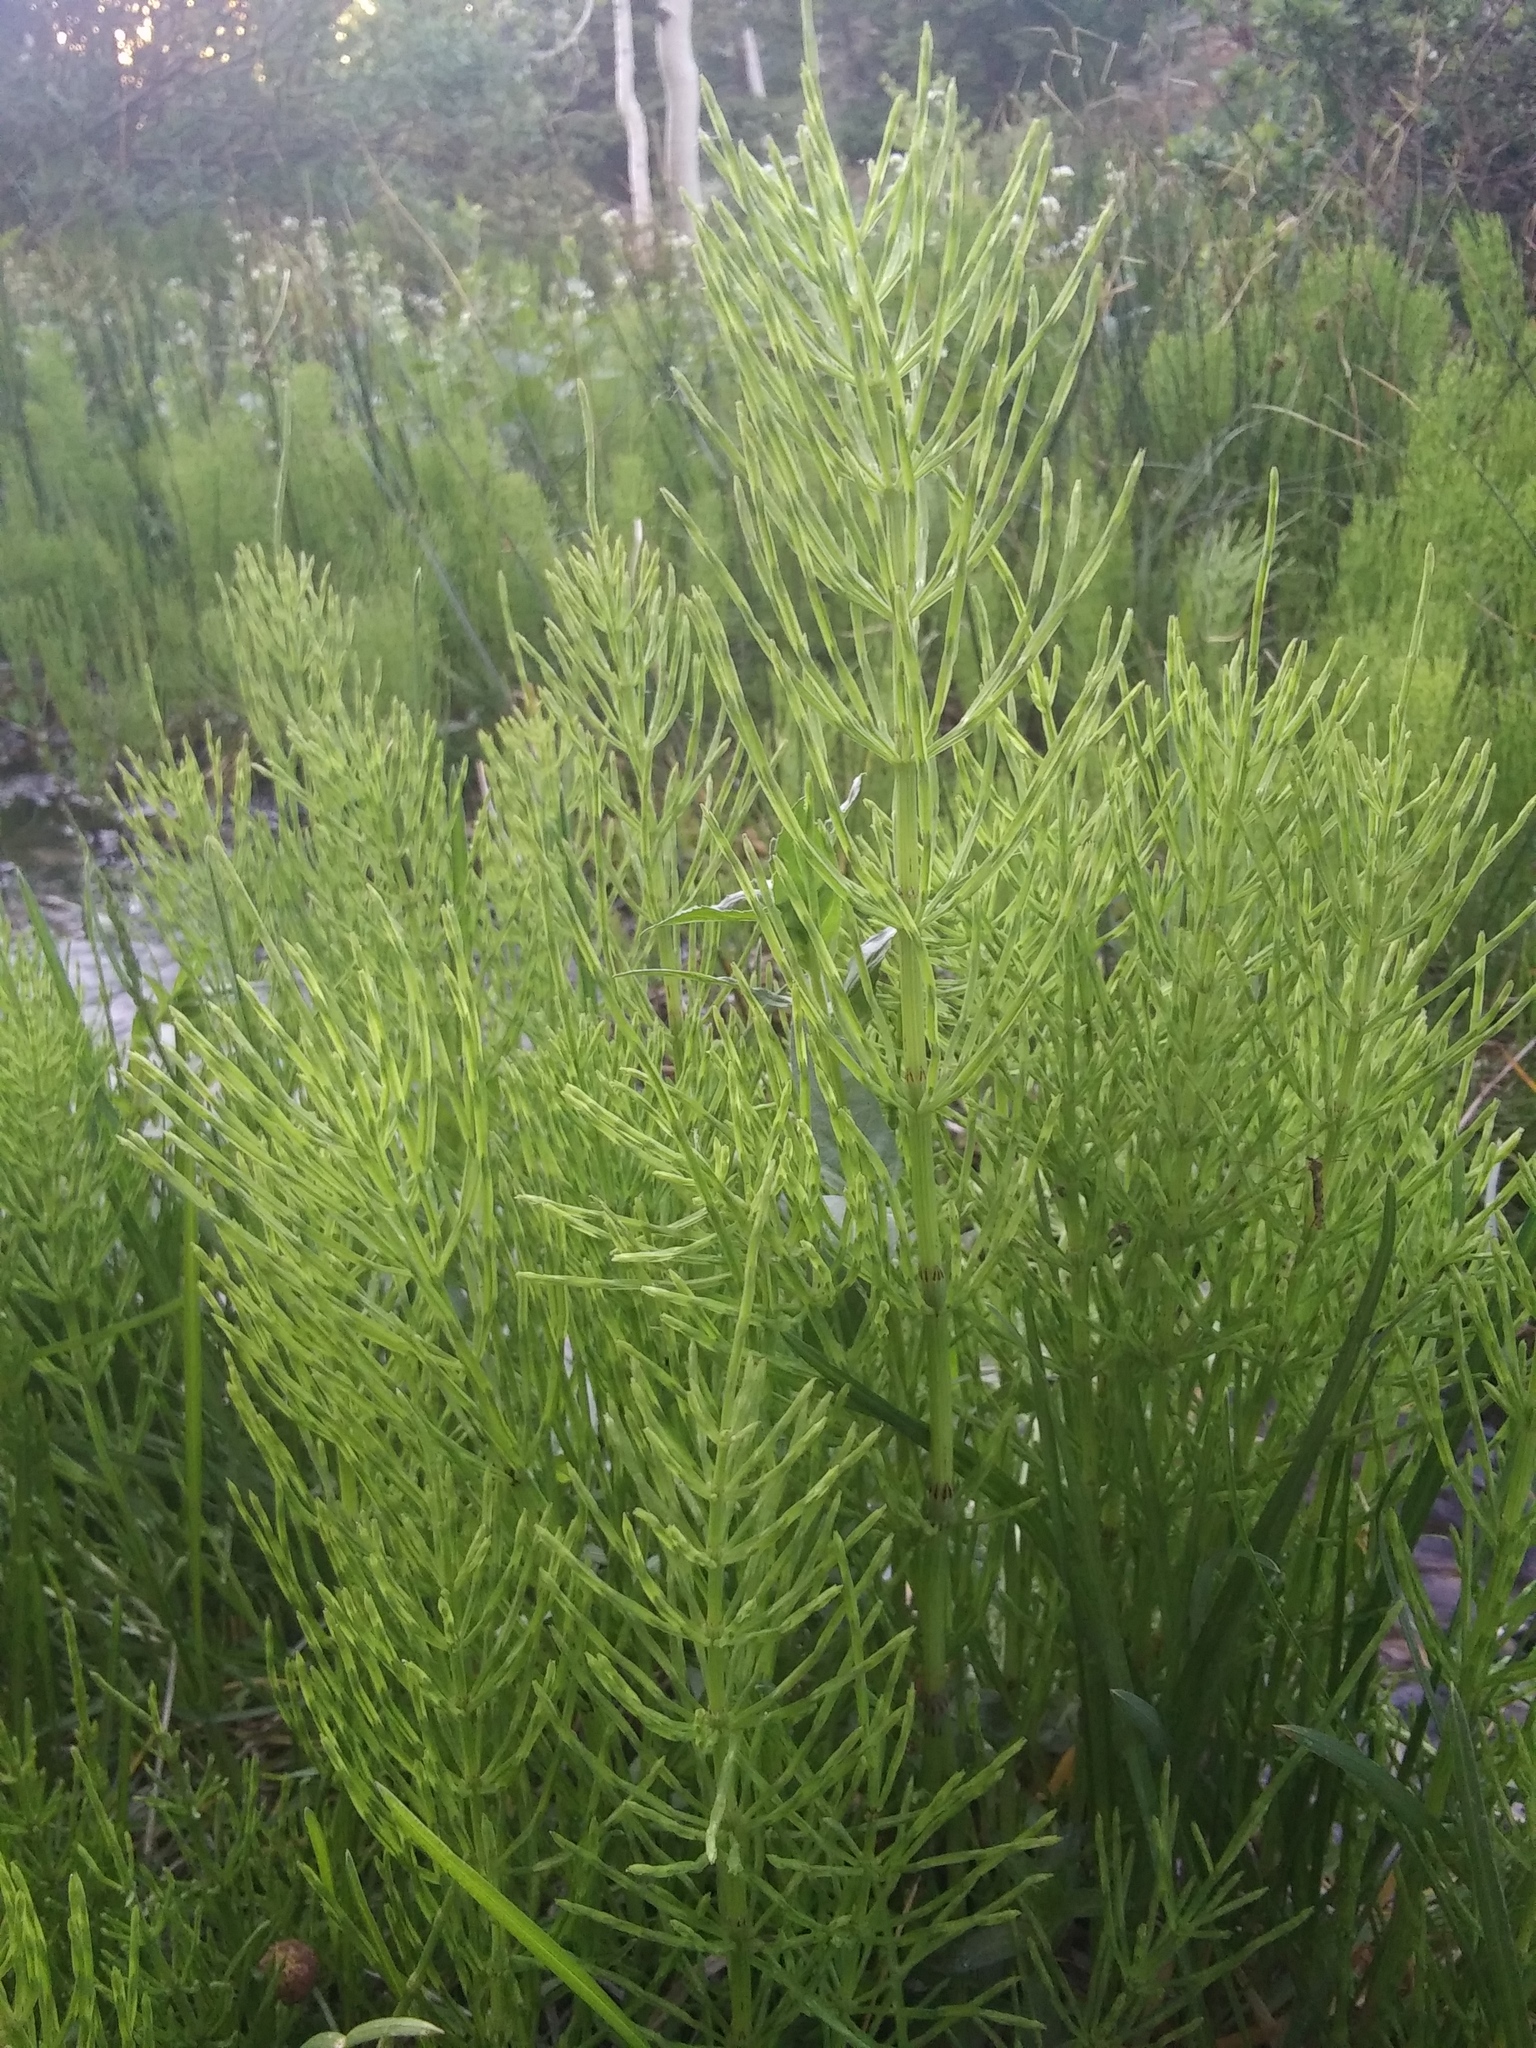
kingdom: Plantae
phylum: Tracheophyta
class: Polypodiopsida
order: Equisetales
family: Equisetaceae
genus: Equisetum
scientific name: Equisetum arvense
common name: Field horsetail
